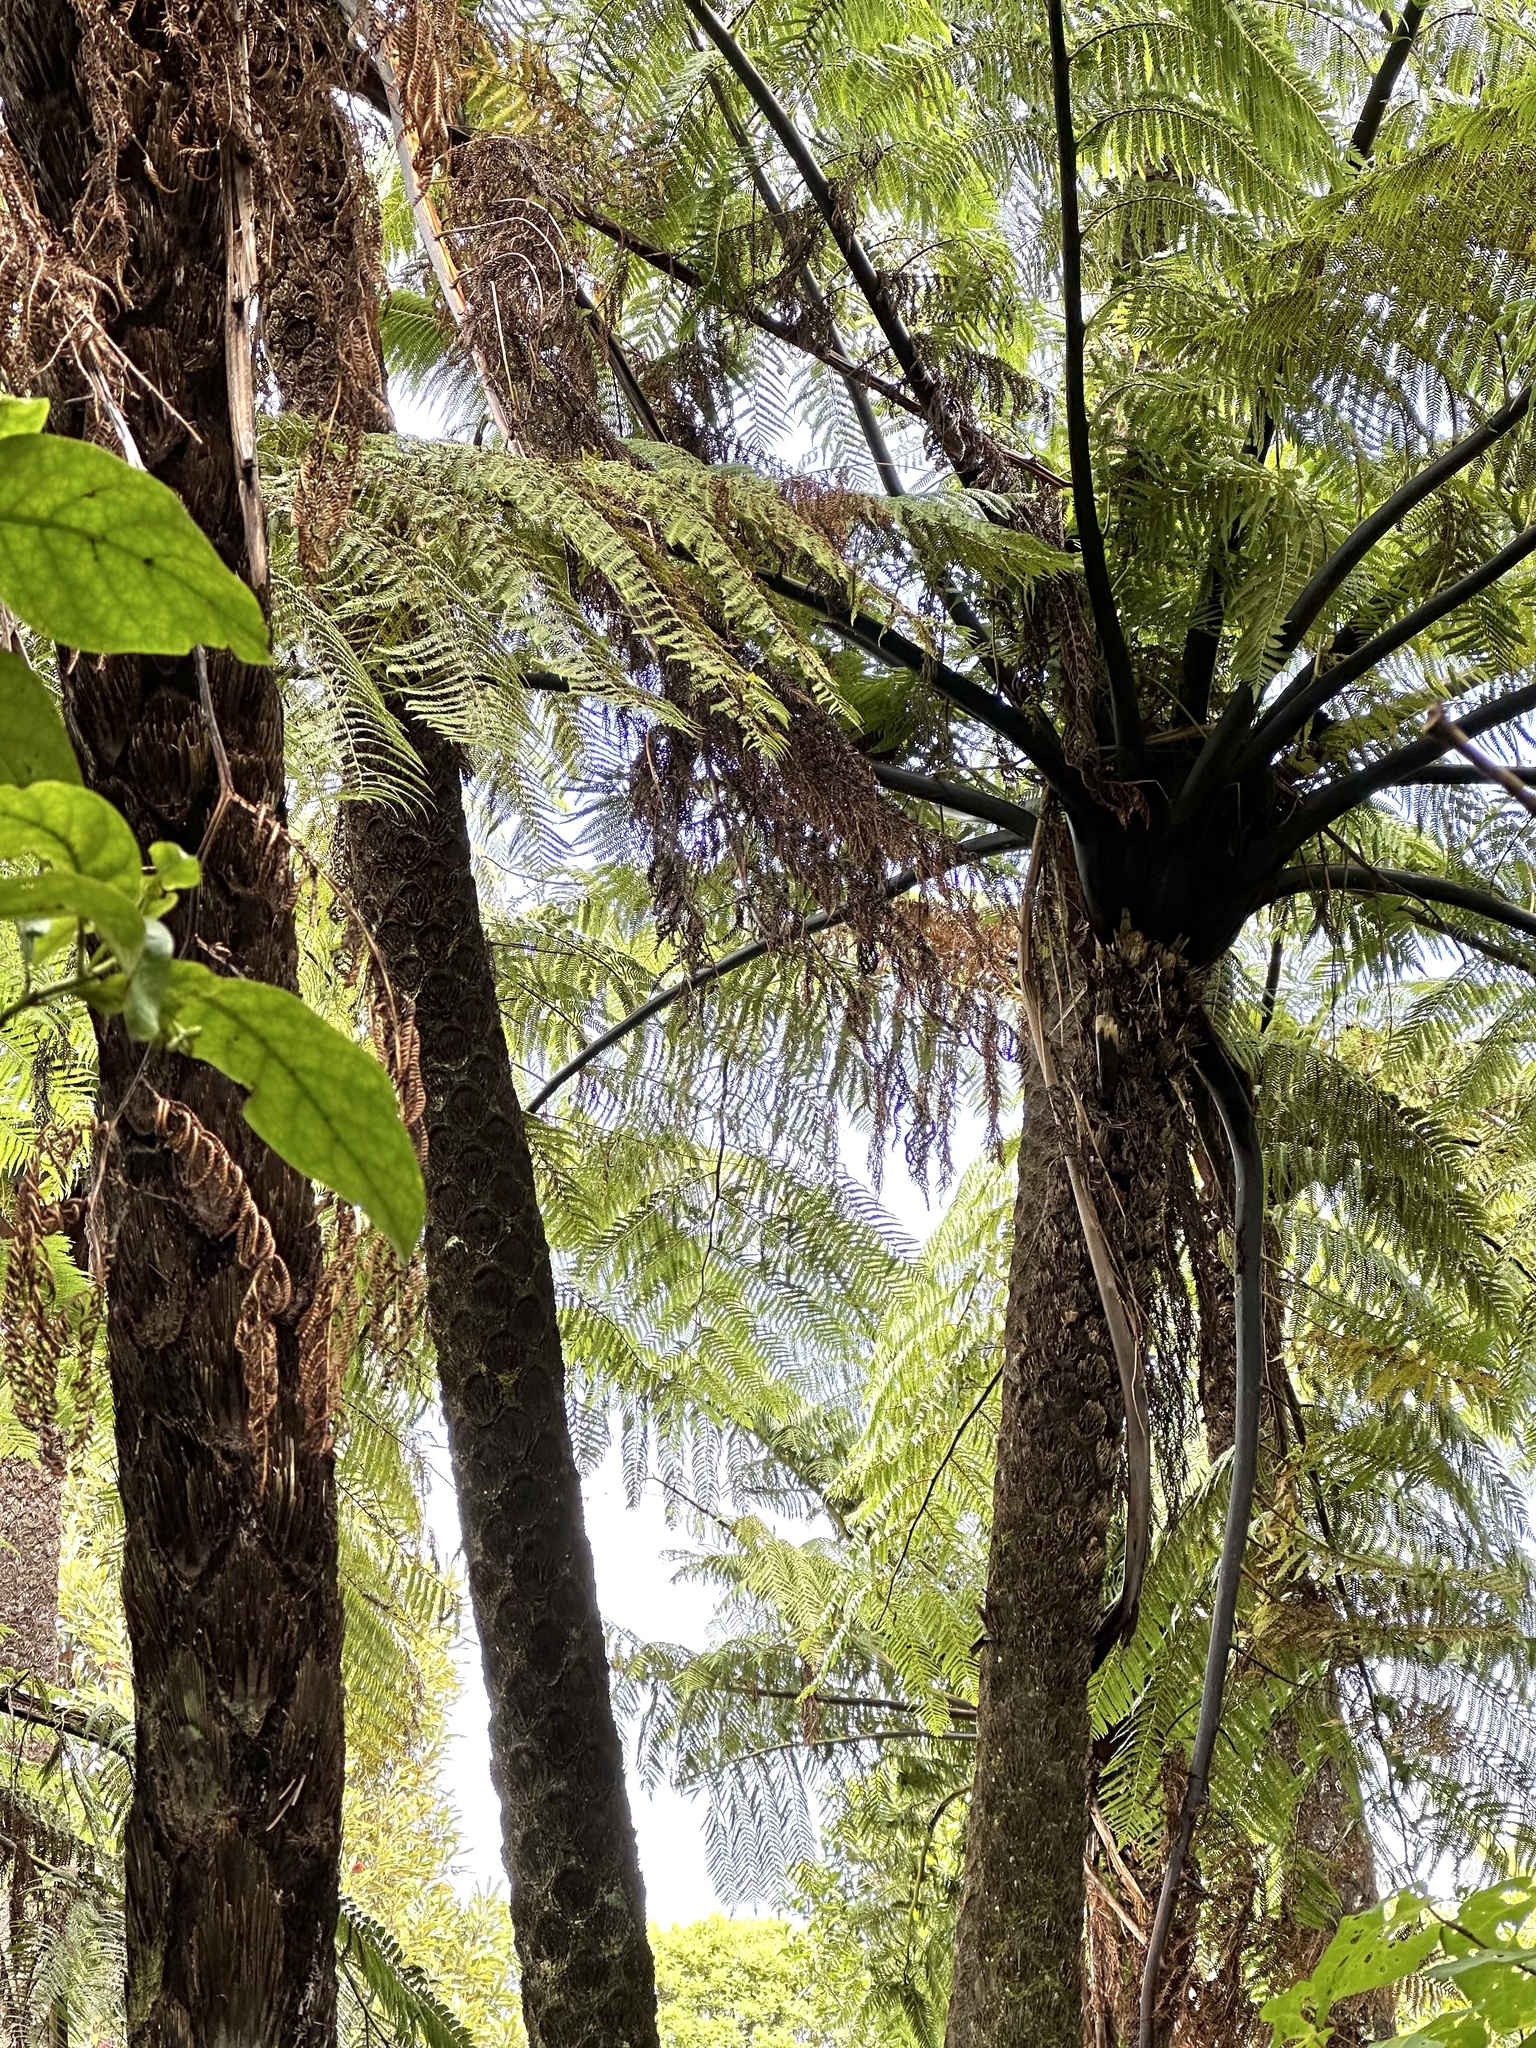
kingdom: Plantae
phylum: Tracheophyta
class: Polypodiopsida
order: Cyatheales
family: Cyatheaceae
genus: Sphaeropteris
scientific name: Sphaeropteris medullaris
